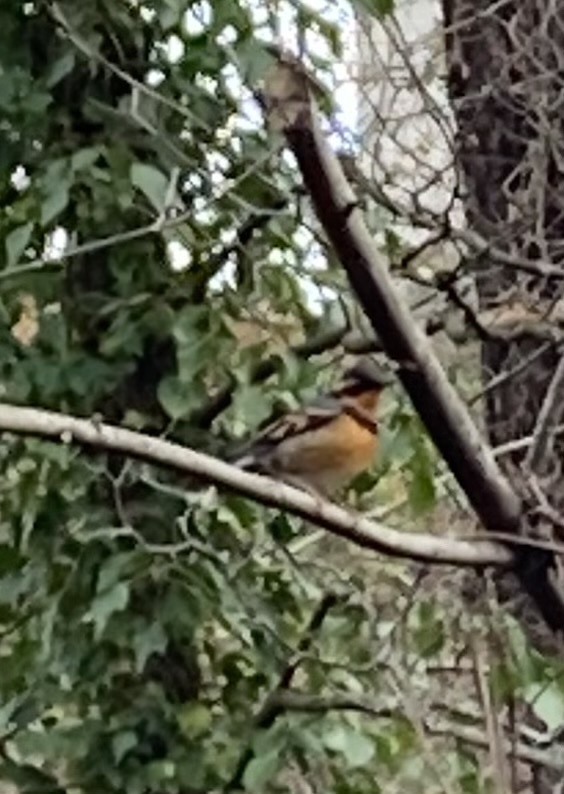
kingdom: Animalia
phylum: Chordata
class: Aves
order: Passeriformes
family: Turdidae
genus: Ixoreus
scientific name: Ixoreus naevius
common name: Varied thrush
